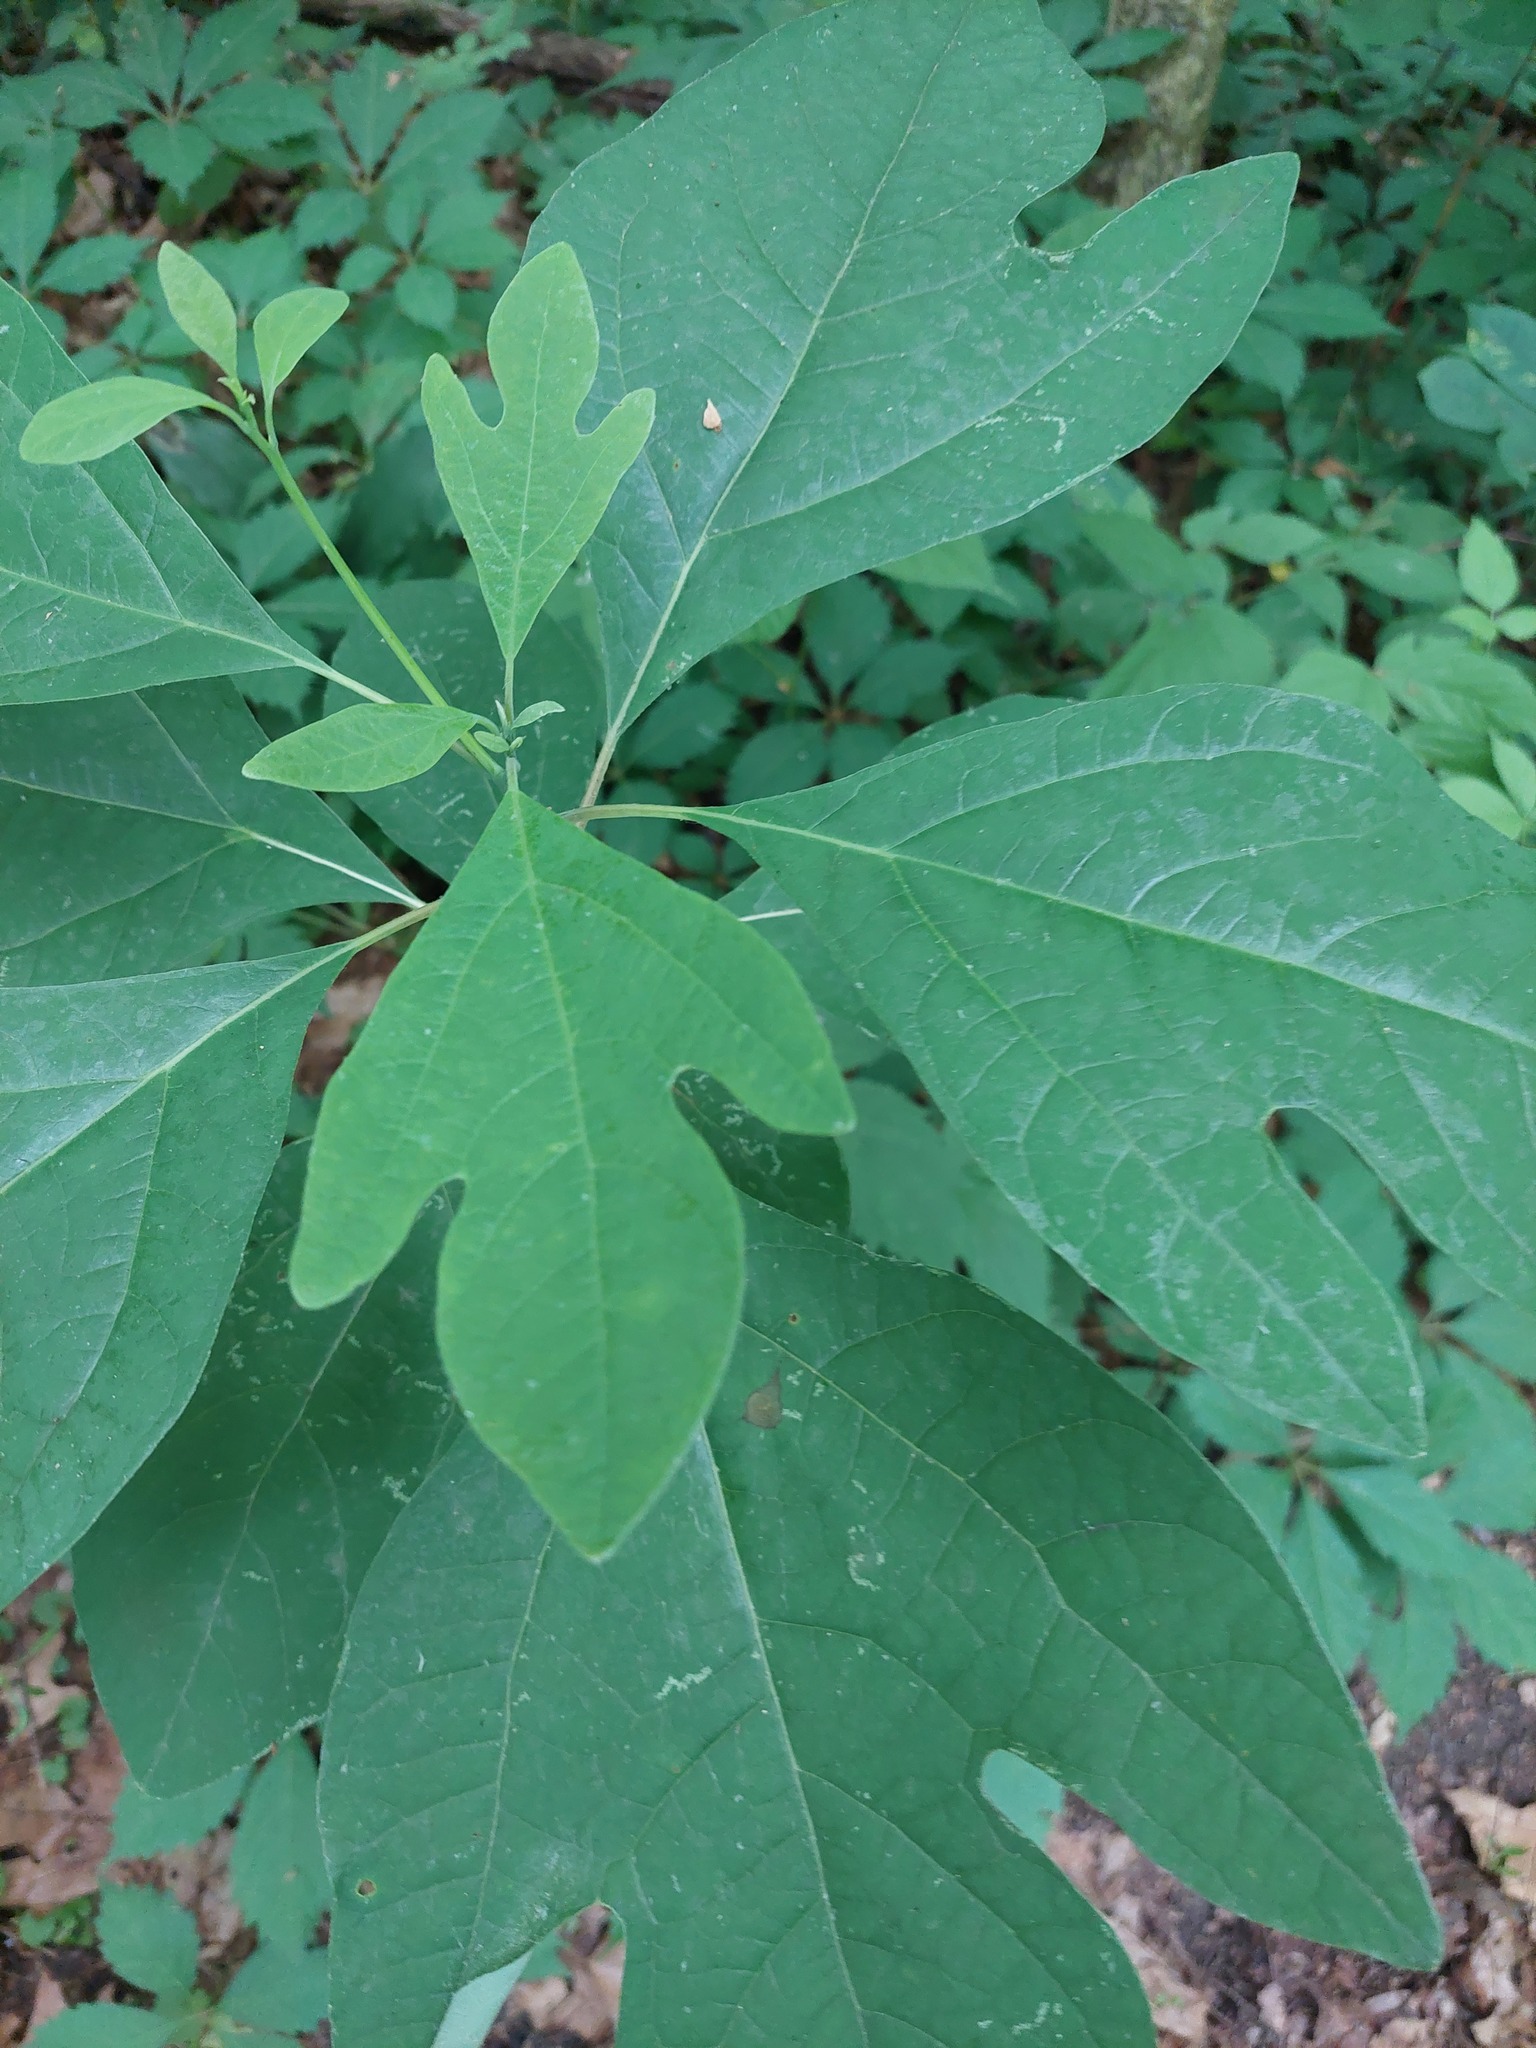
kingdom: Plantae
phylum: Tracheophyta
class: Magnoliopsida
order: Laurales
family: Lauraceae
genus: Sassafras
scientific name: Sassafras albidum
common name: Sassafras
